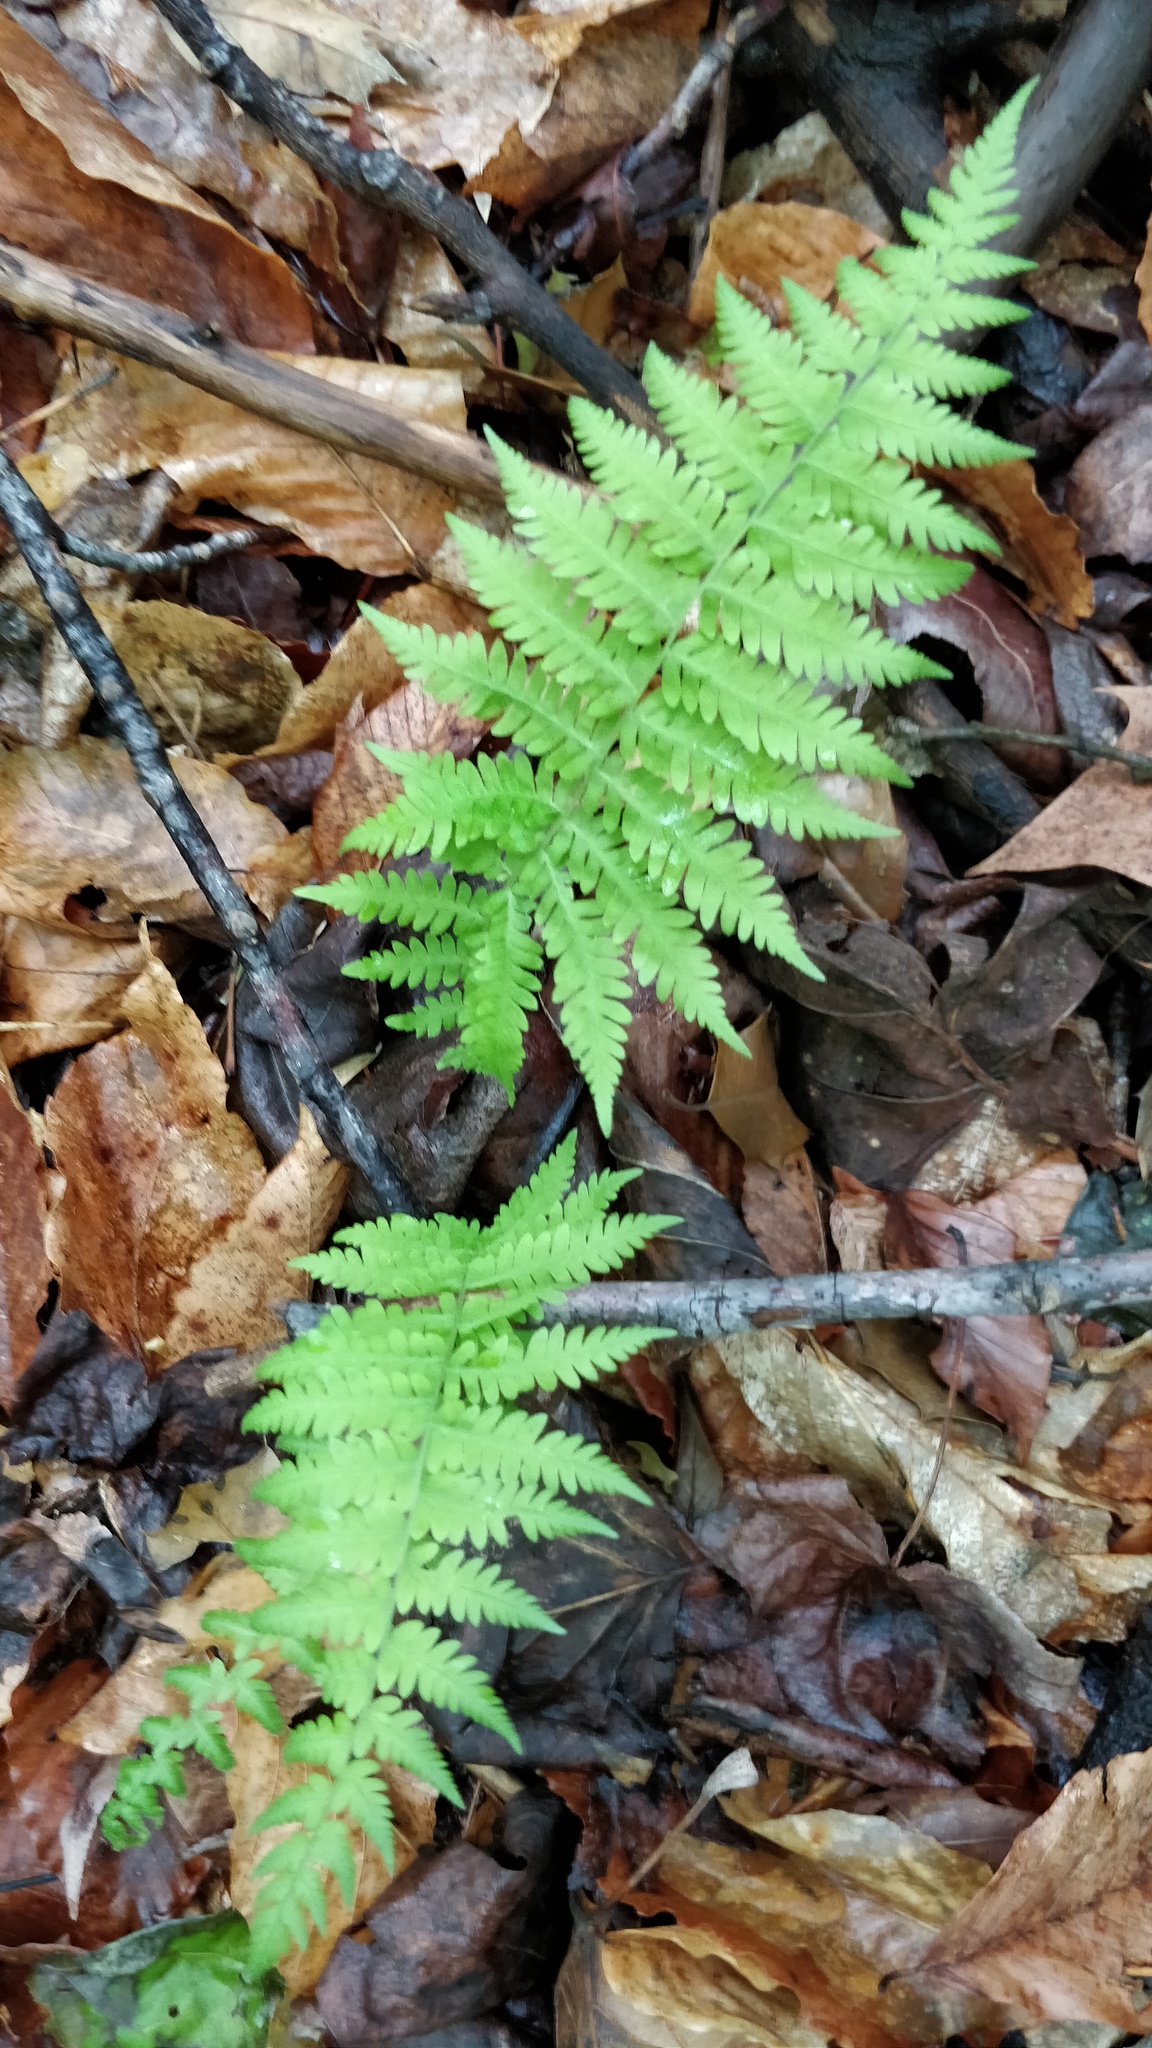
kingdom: Plantae
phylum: Tracheophyta
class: Polypodiopsida
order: Polypodiales
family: Thelypteridaceae
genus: Amauropelta
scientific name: Amauropelta noveboracensis
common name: New york fern
